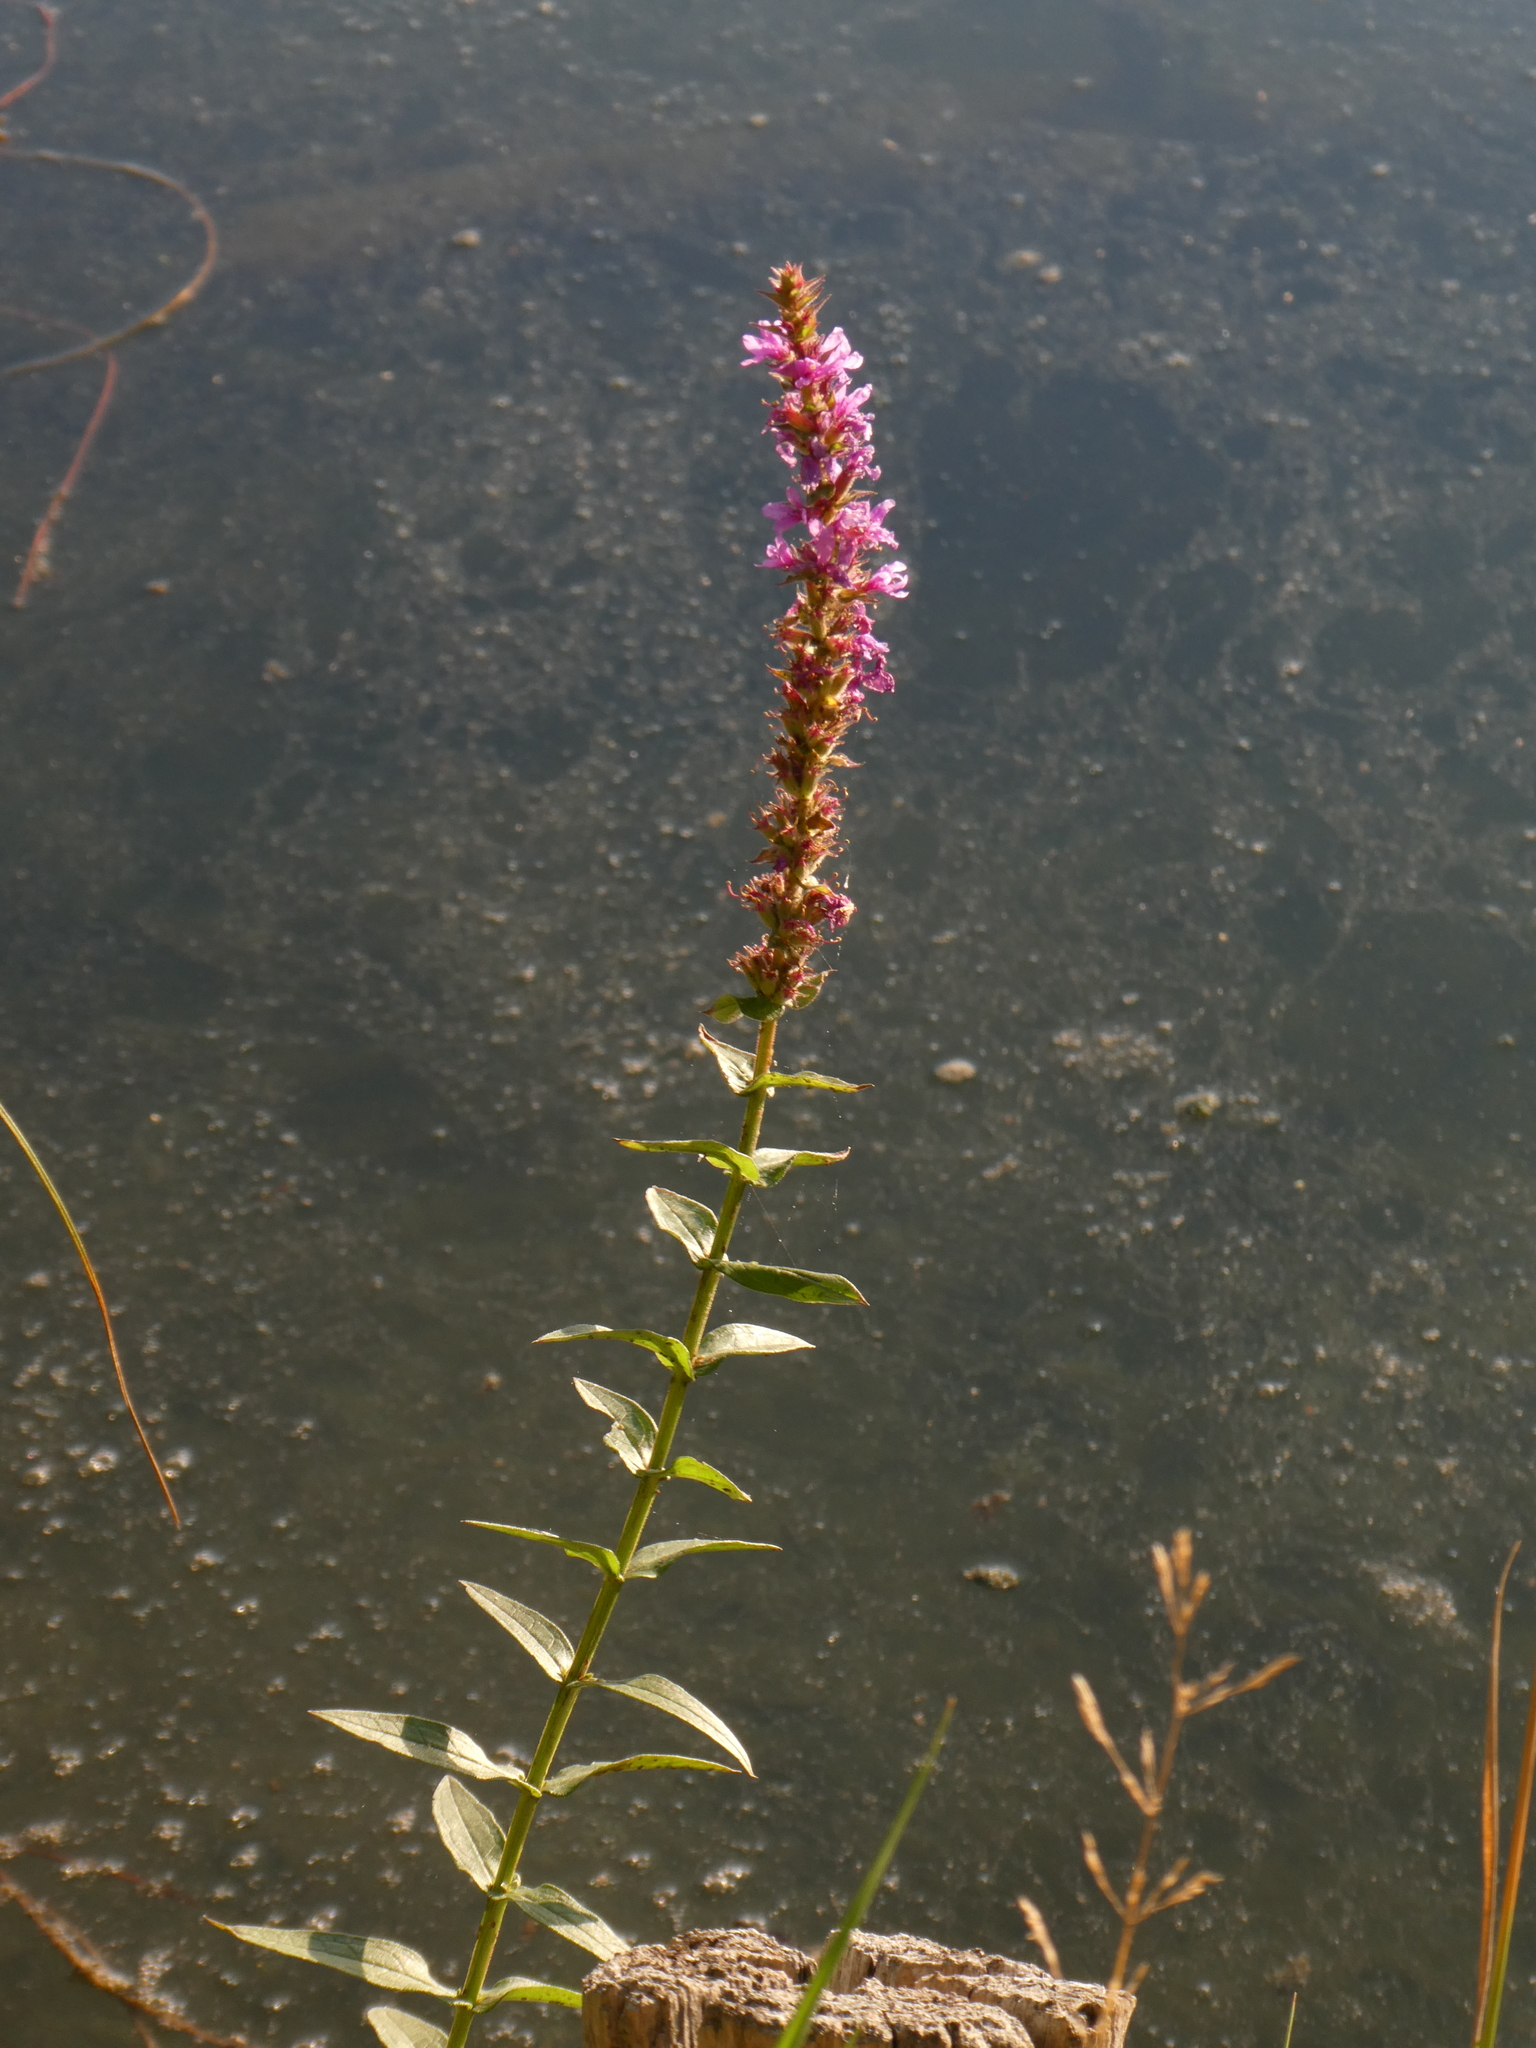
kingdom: Plantae
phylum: Tracheophyta
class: Magnoliopsida
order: Myrtales
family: Lythraceae
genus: Lythrum
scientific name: Lythrum salicaria
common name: Purple loosestrife
